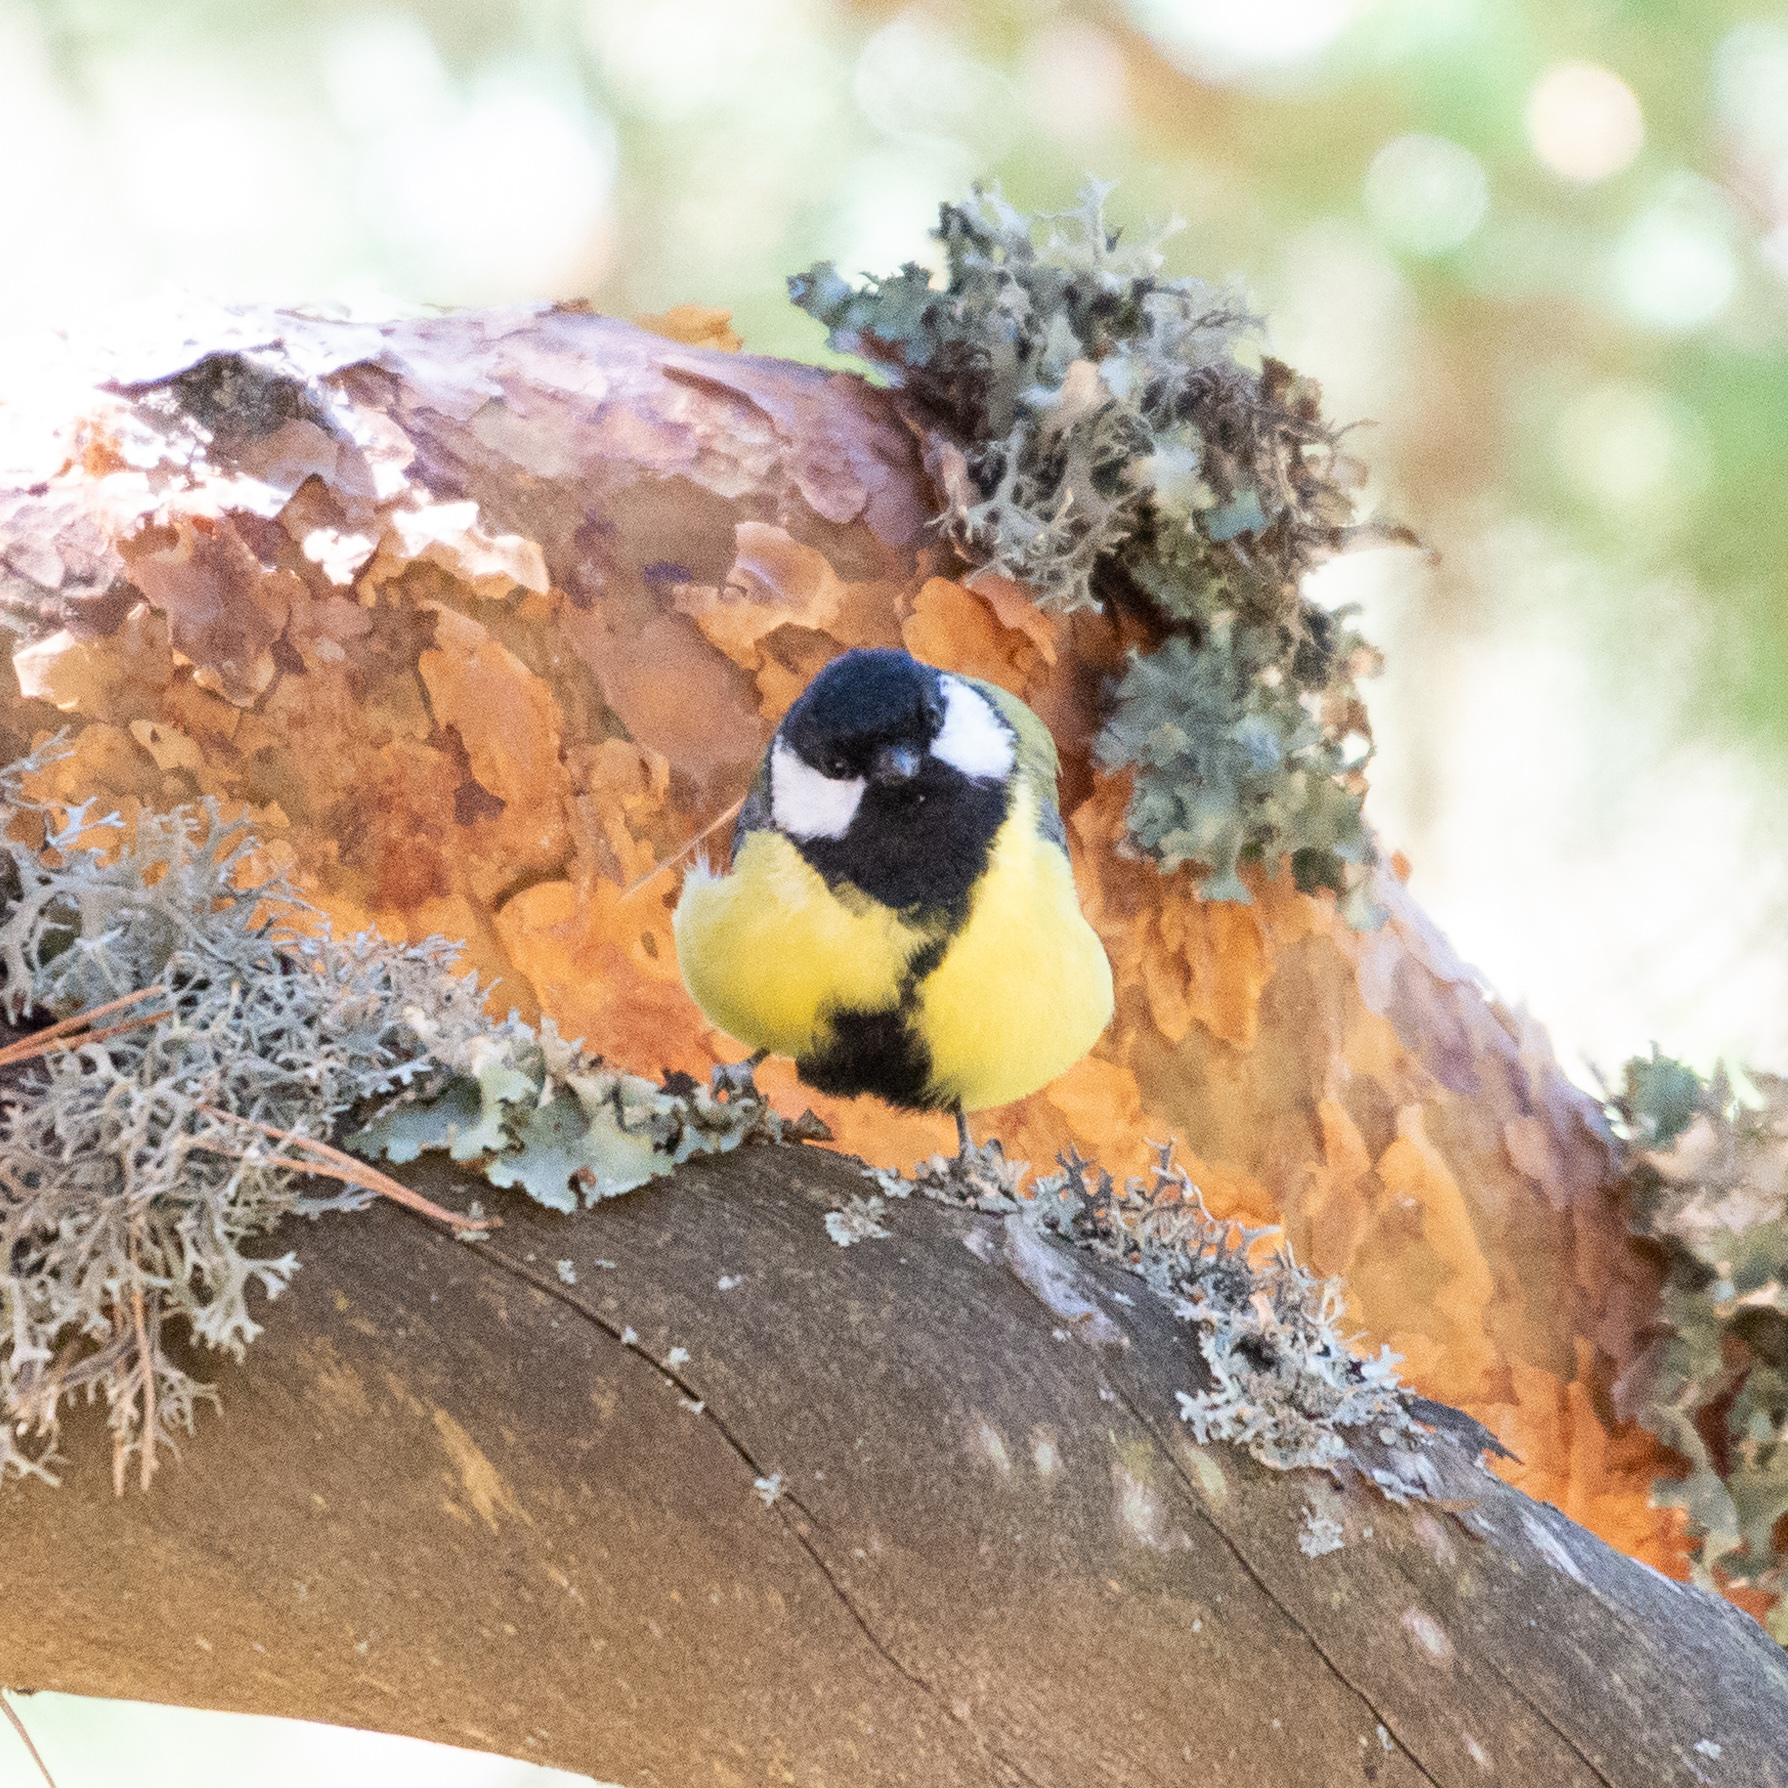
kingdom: Animalia
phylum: Chordata
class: Aves
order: Passeriformes
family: Paridae
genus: Parus
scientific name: Parus major
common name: Great tit
